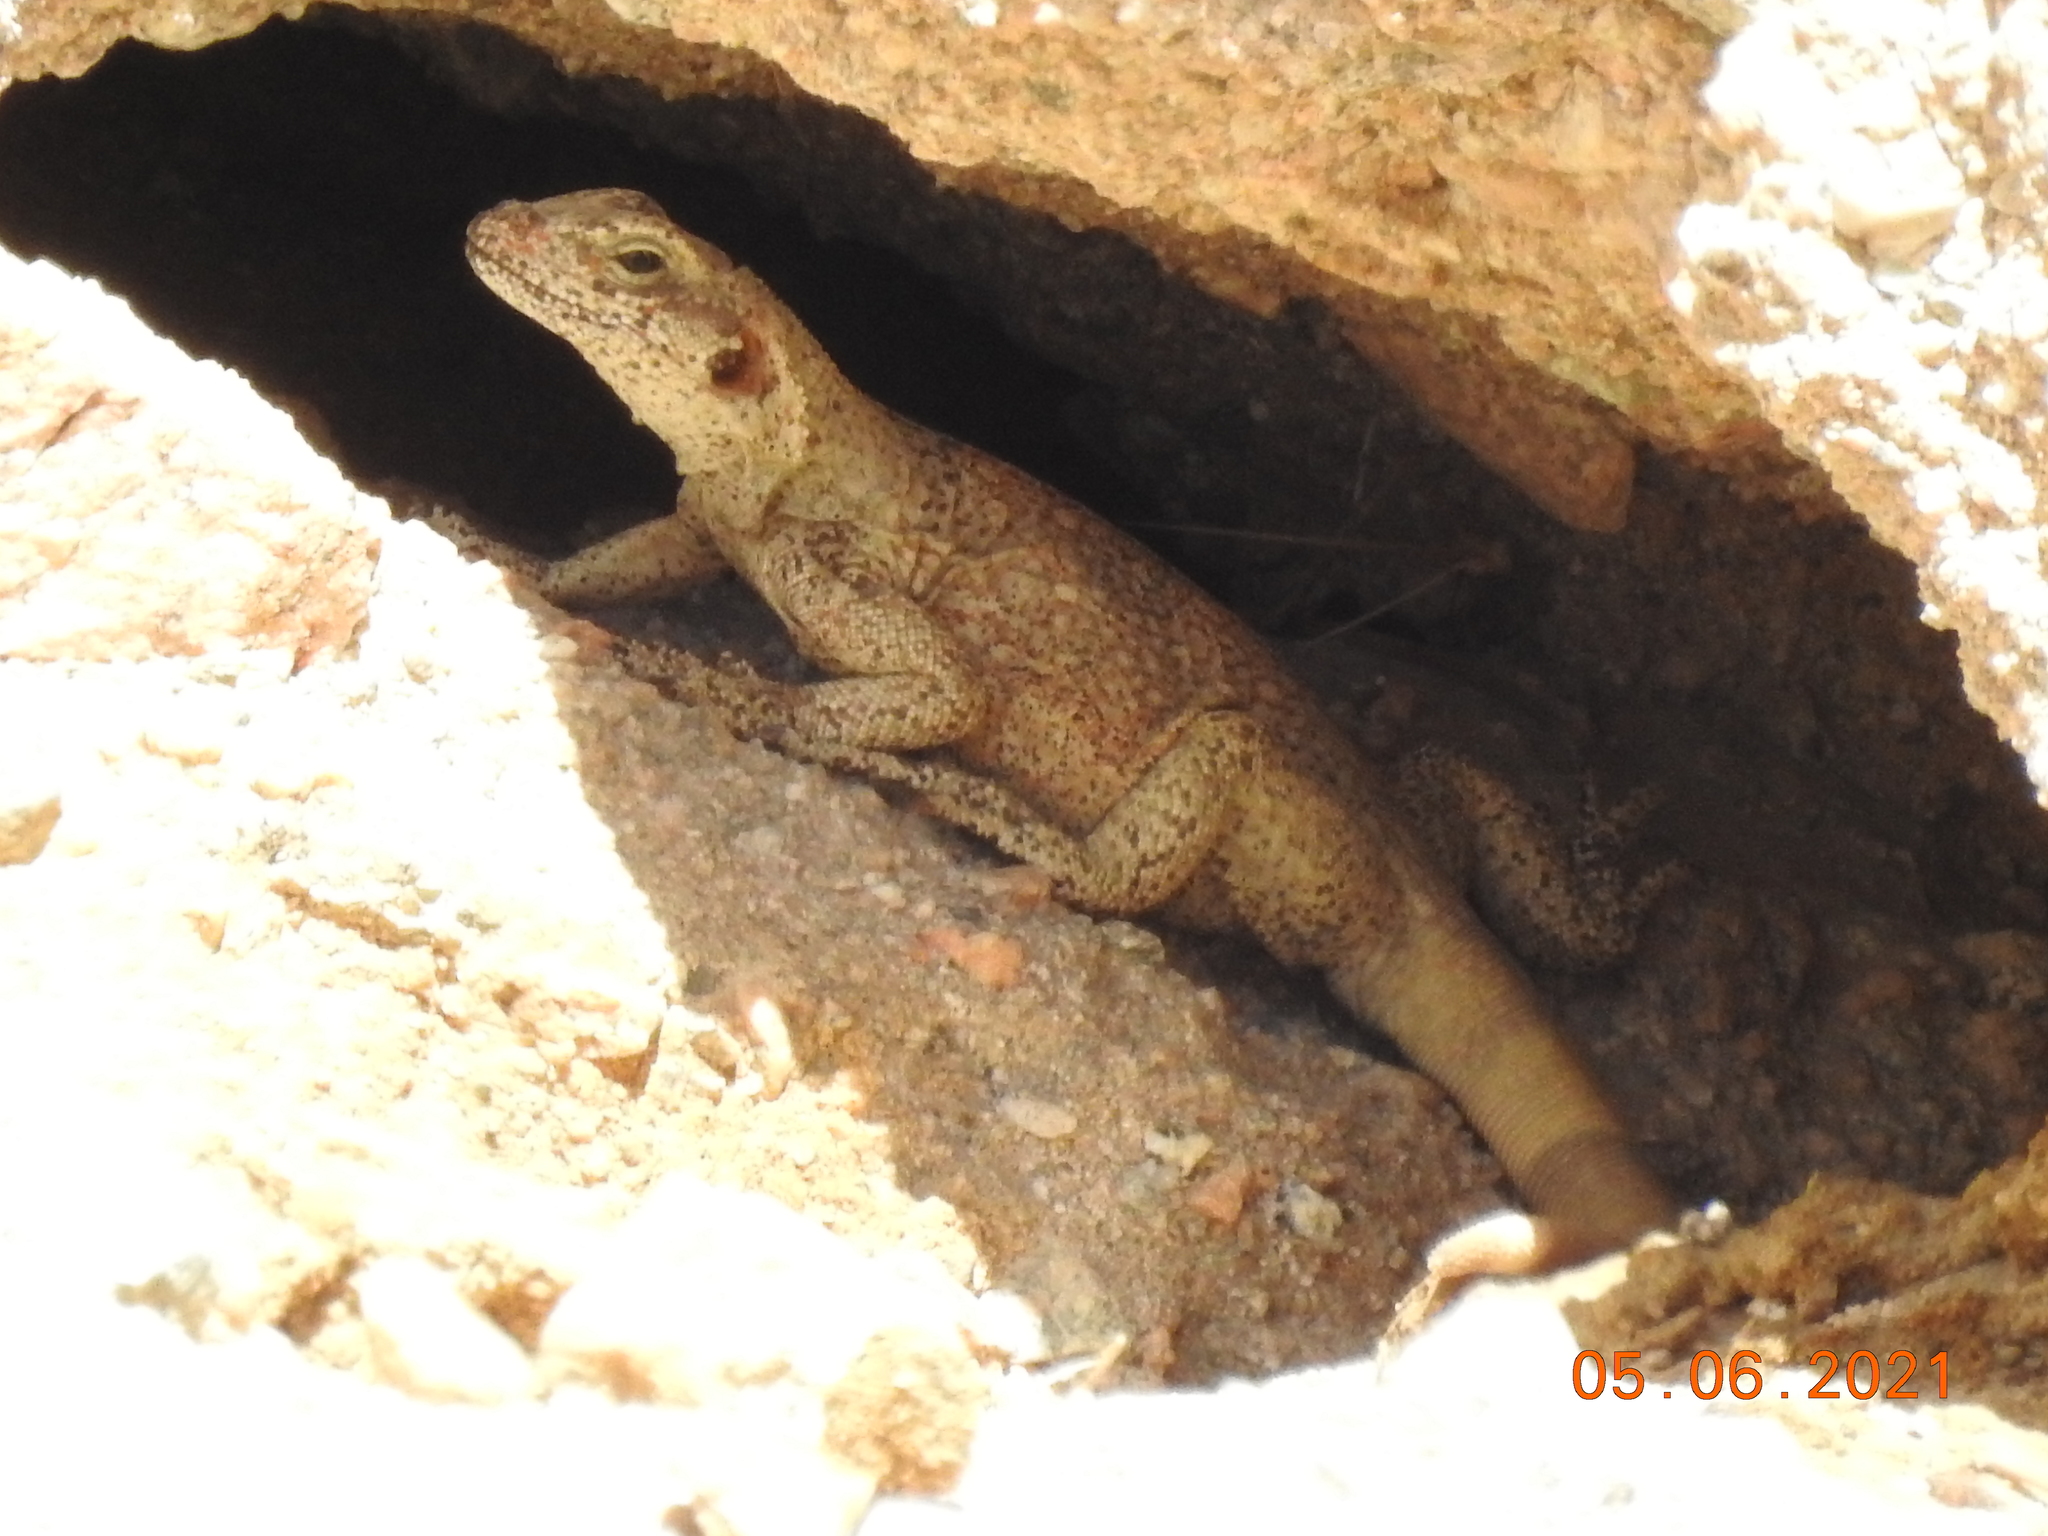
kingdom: Animalia
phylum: Chordata
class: Squamata
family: Iguanidae
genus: Sauromalus
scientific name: Sauromalus ater
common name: Northern chuckwalla
